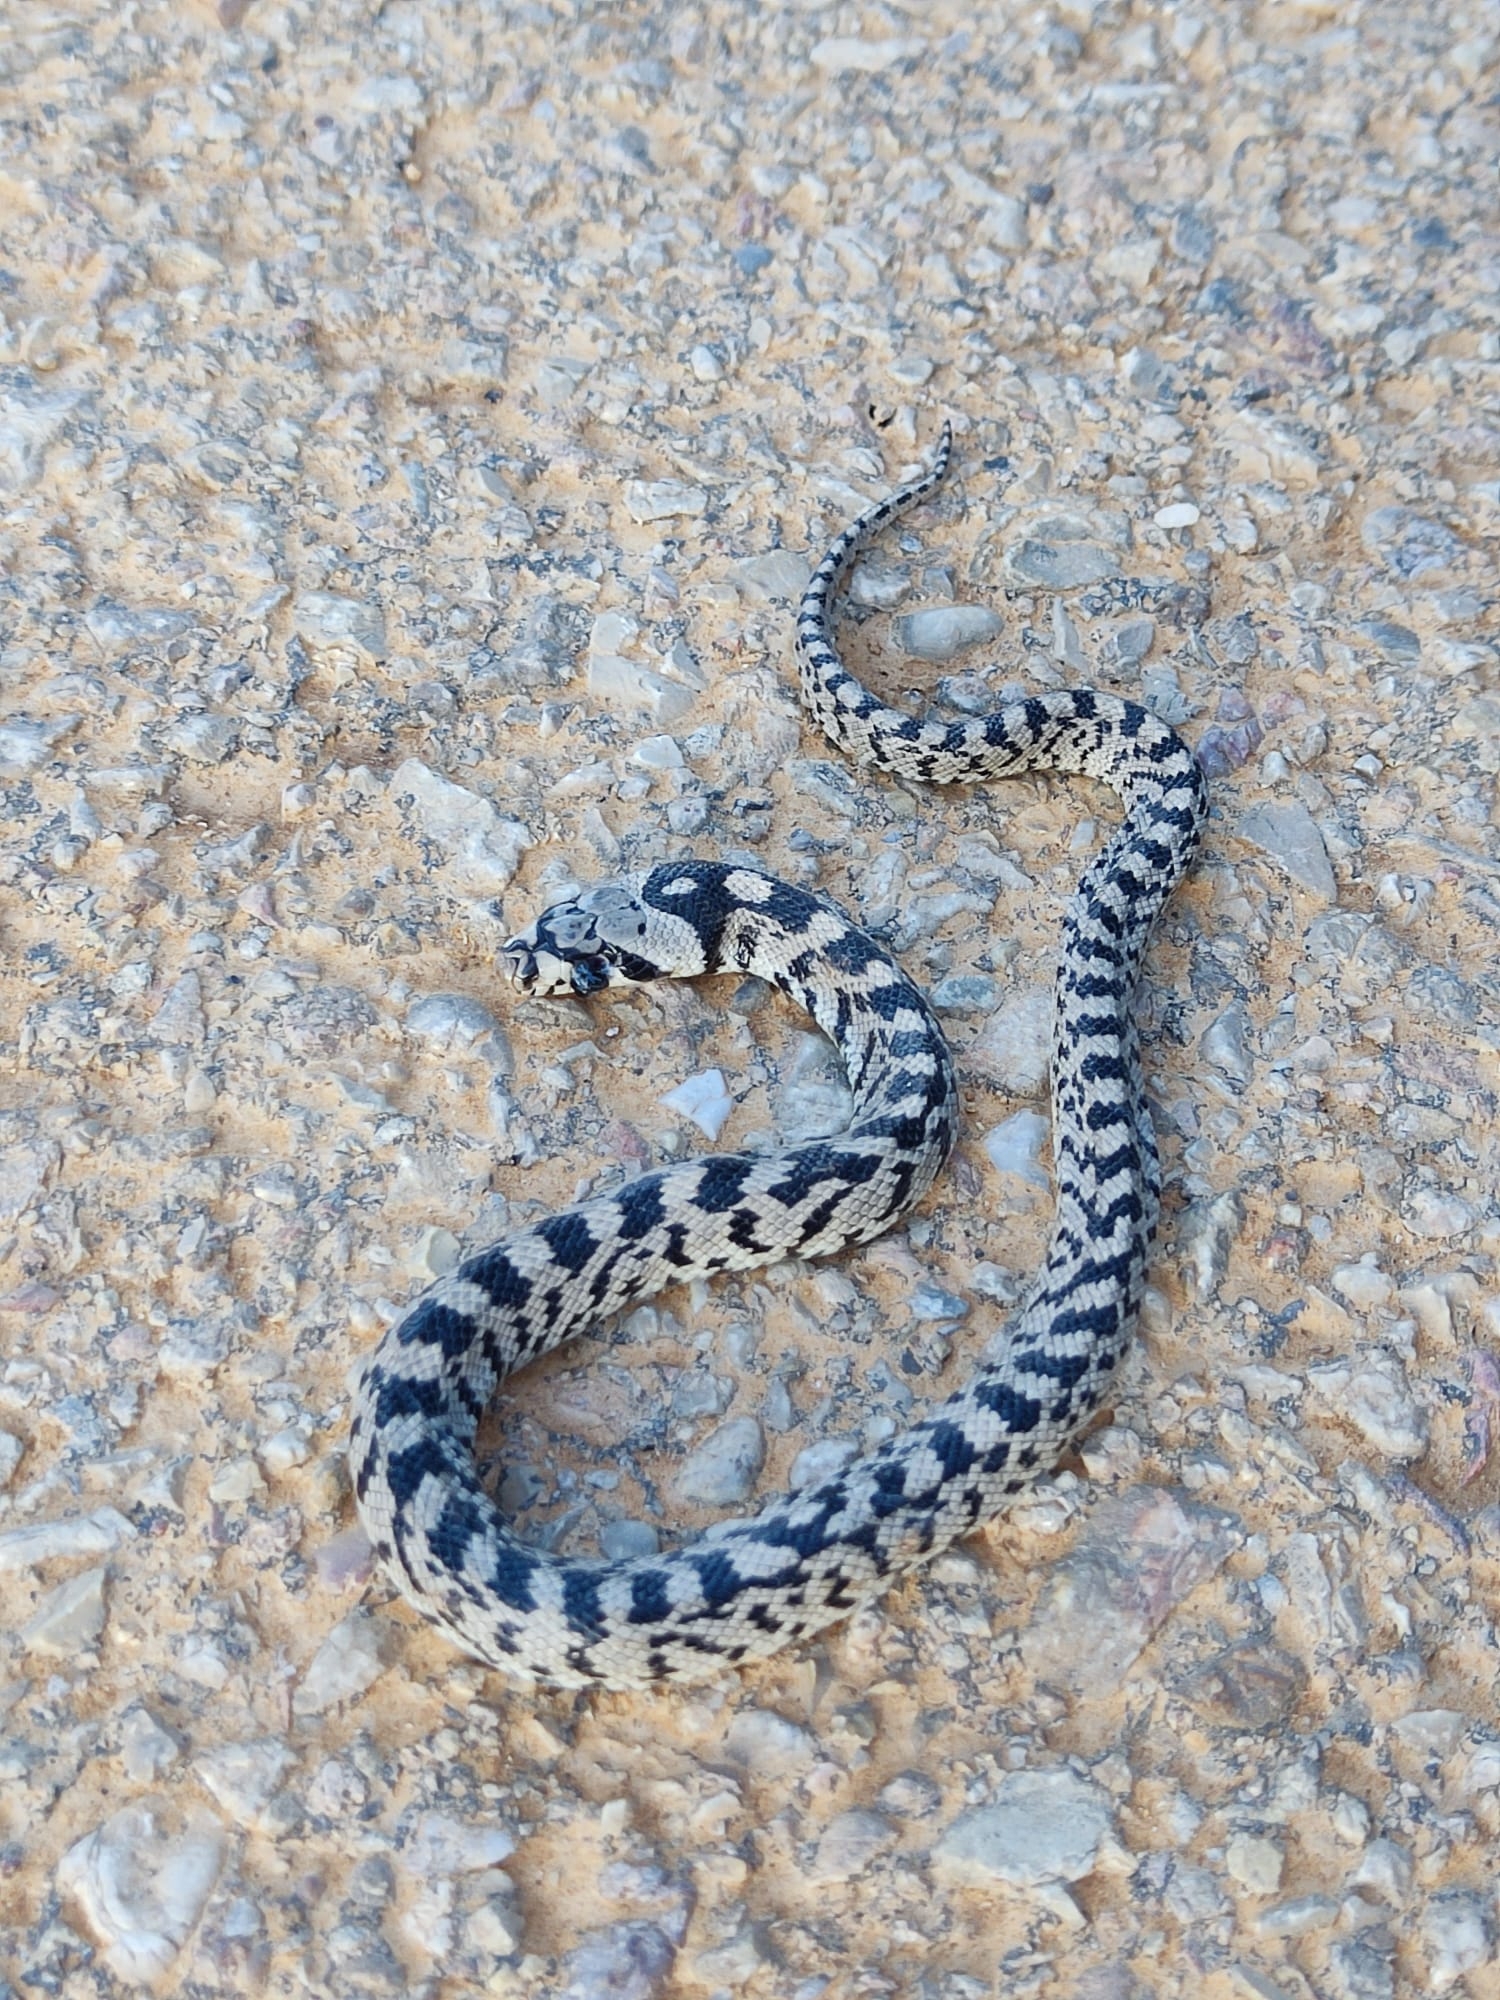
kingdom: Animalia
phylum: Chordata
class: Squamata
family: Colubridae
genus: Zamenis
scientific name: Zamenis scalaris
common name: Ladder snakes
